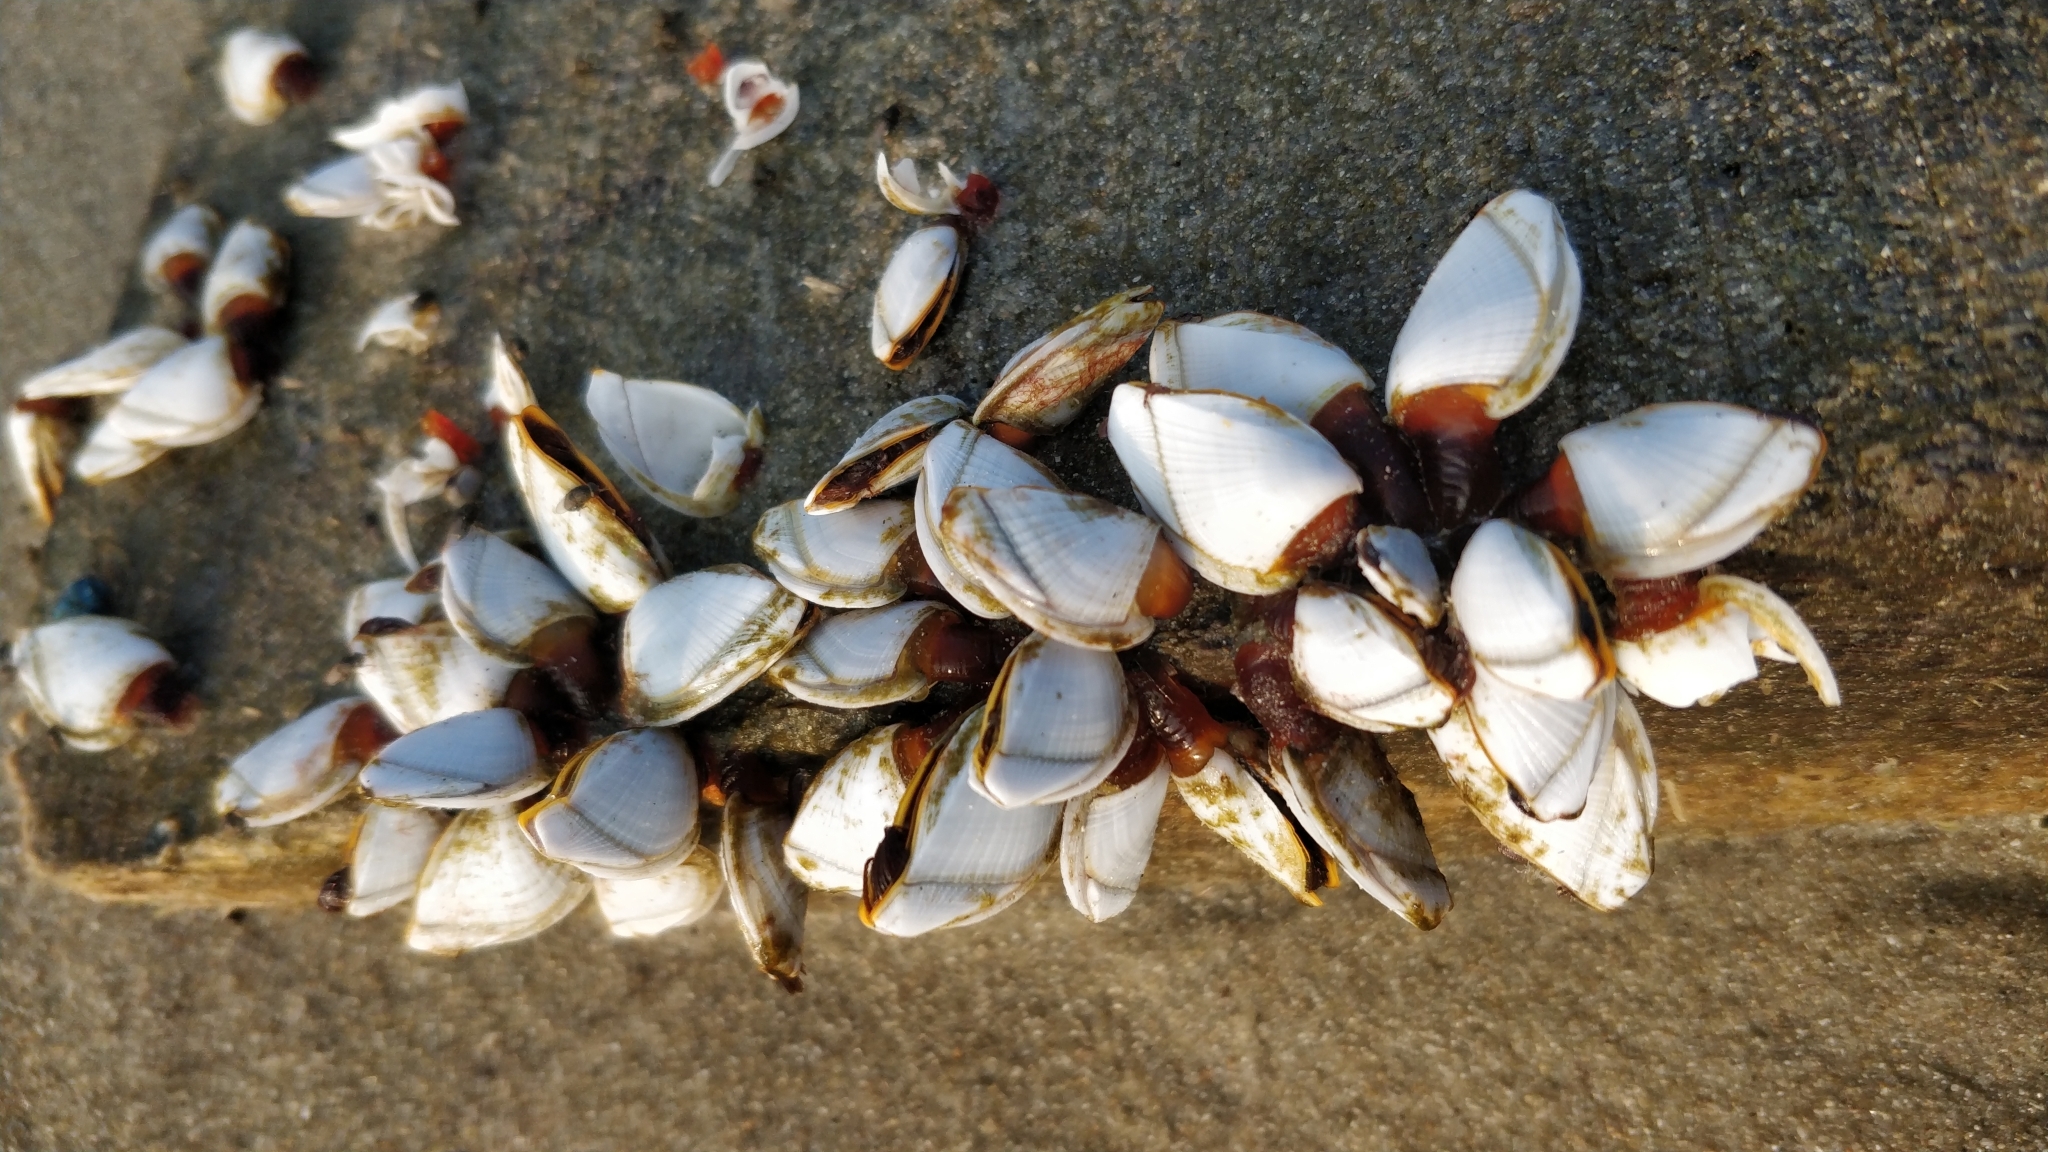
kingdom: Animalia
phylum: Arthropoda
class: Maxillopoda
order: Pedunculata
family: Lepadidae
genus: Lepas
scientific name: Lepas anserifera
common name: Goose barnacle
